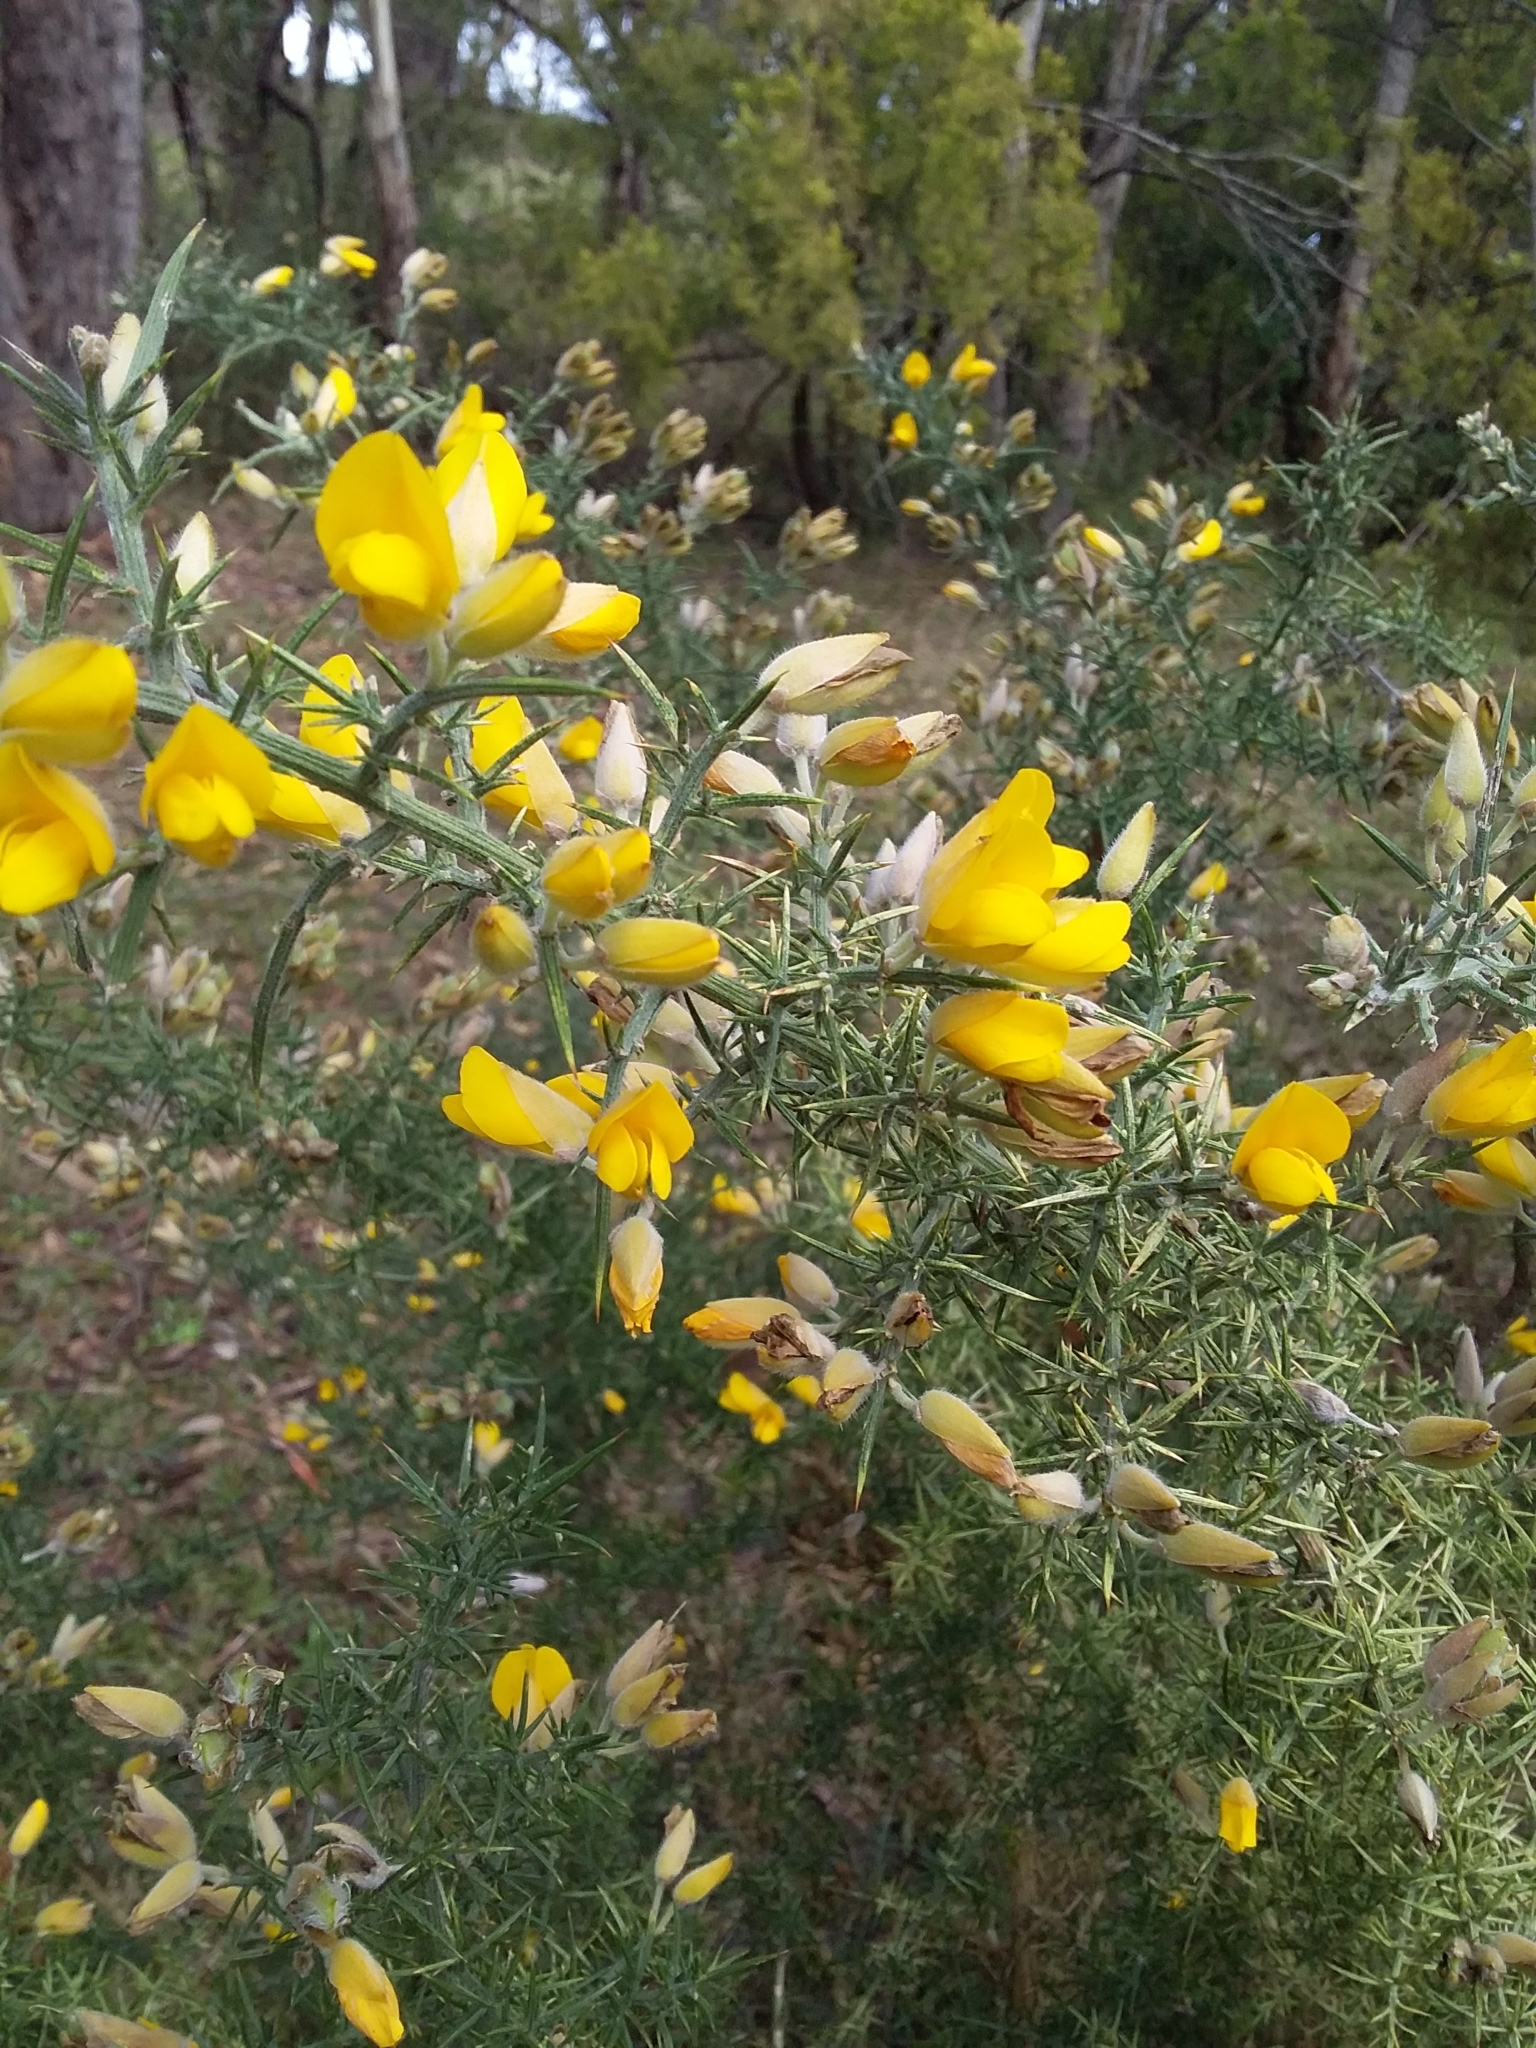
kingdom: Plantae
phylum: Tracheophyta
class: Magnoliopsida
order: Fabales
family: Fabaceae
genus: Ulex
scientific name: Ulex europaeus
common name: Common gorse
